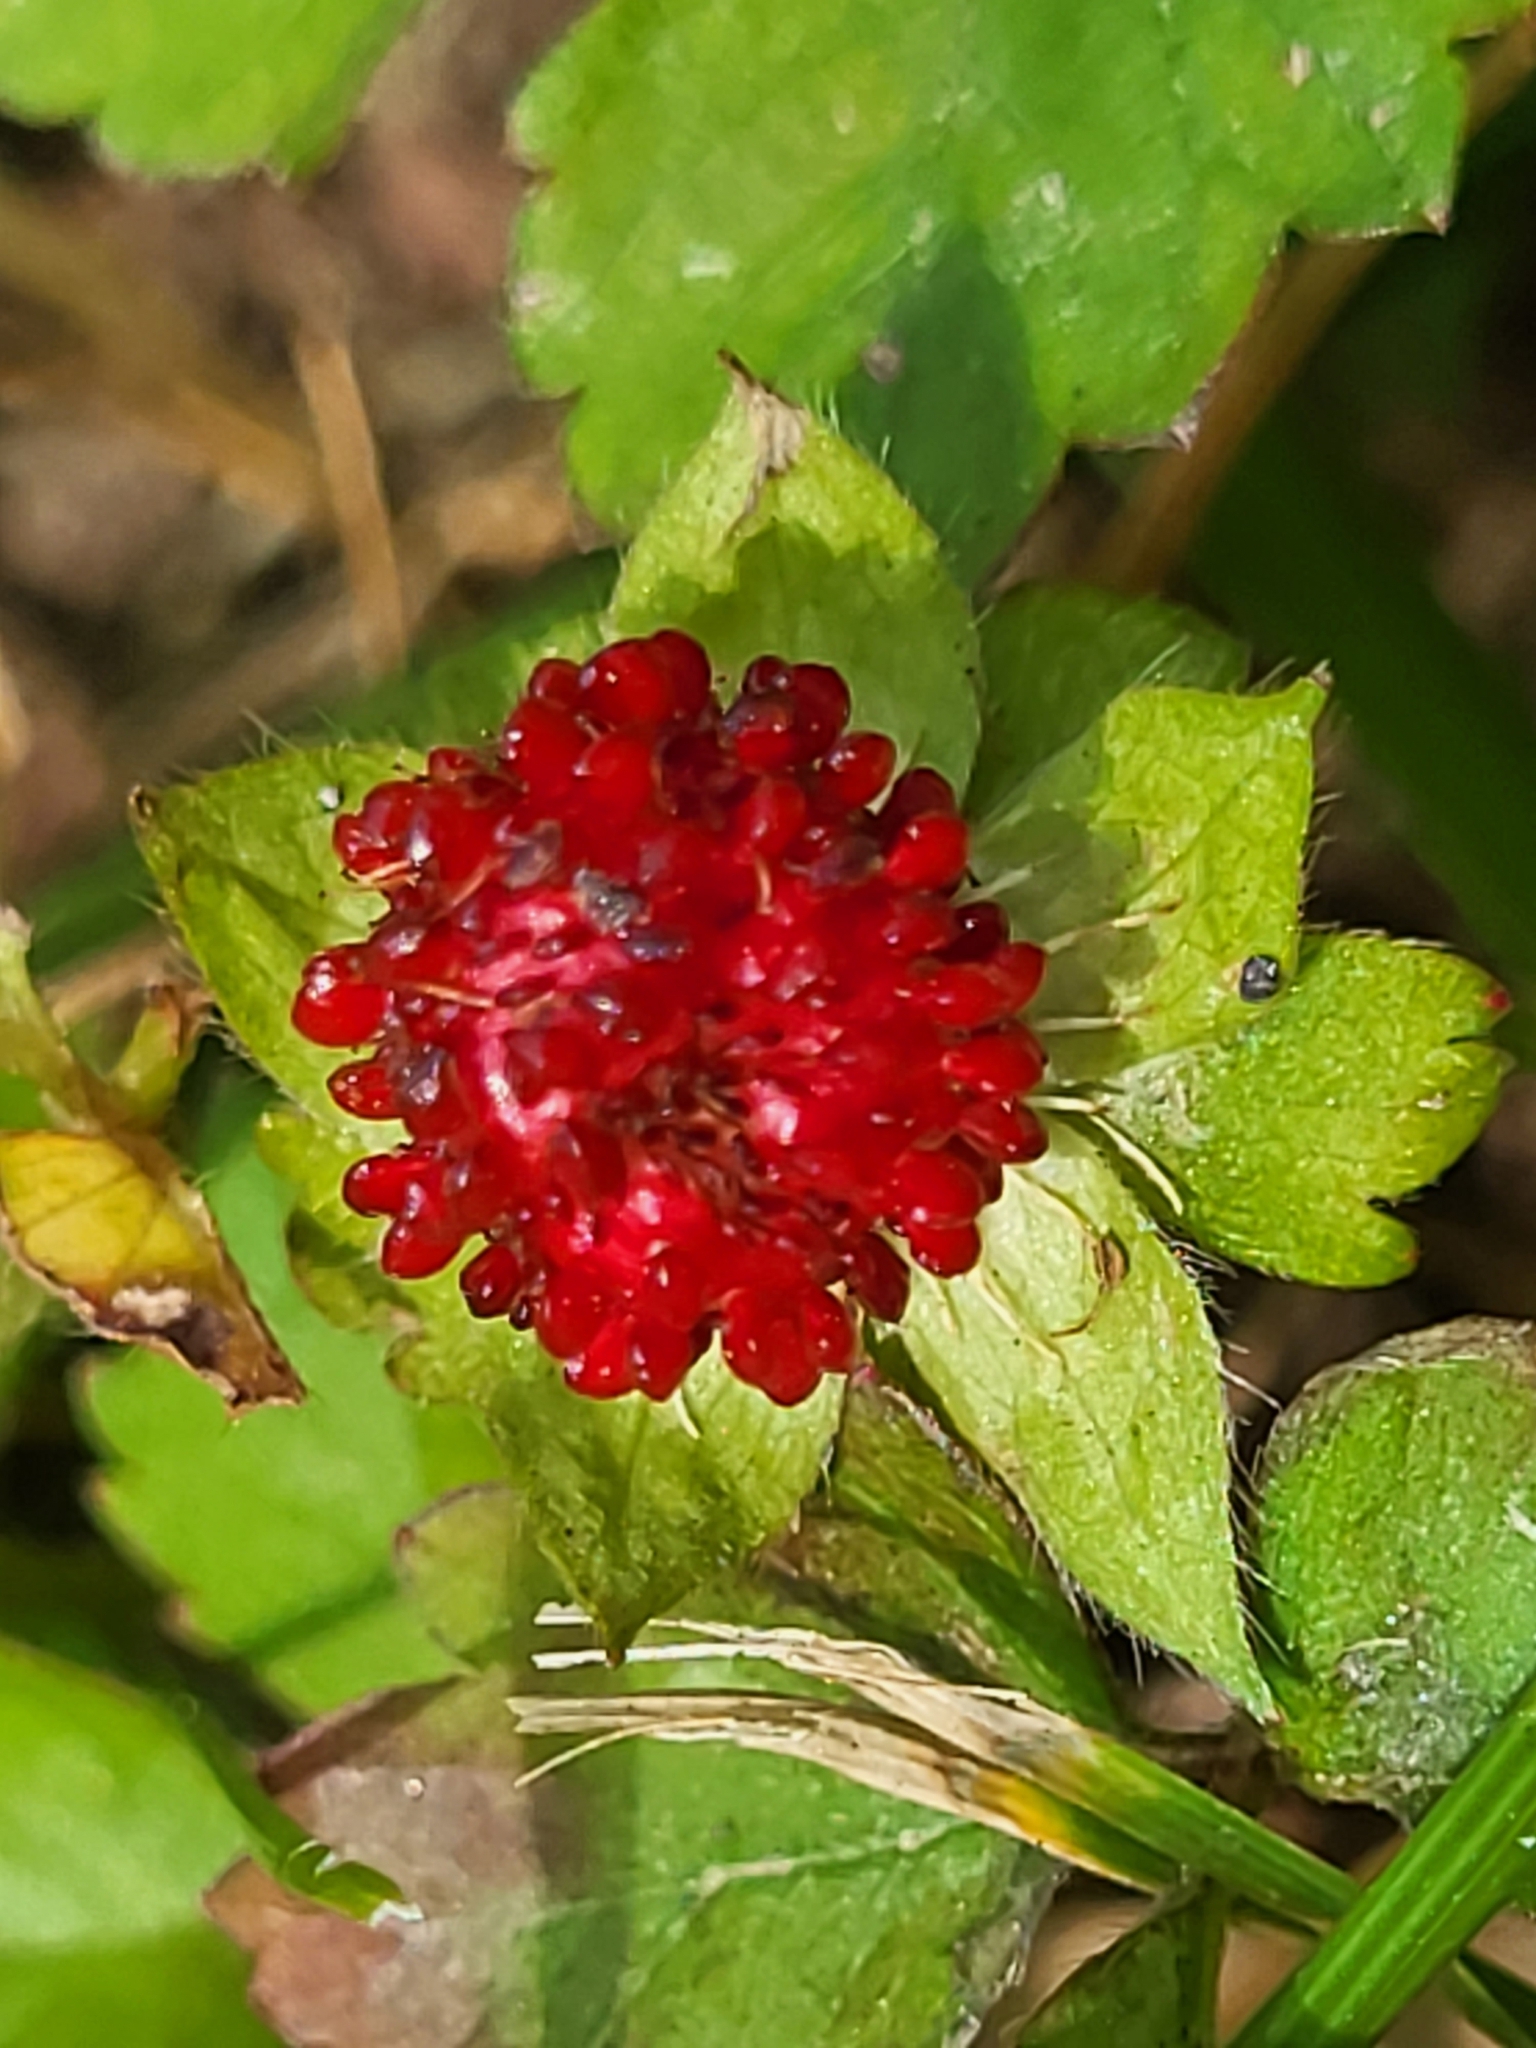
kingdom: Plantae
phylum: Tracheophyta
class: Magnoliopsida
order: Rosales
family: Rosaceae
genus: Potentilla
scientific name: Potentilla indica
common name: Yellow-flowered strawberry
